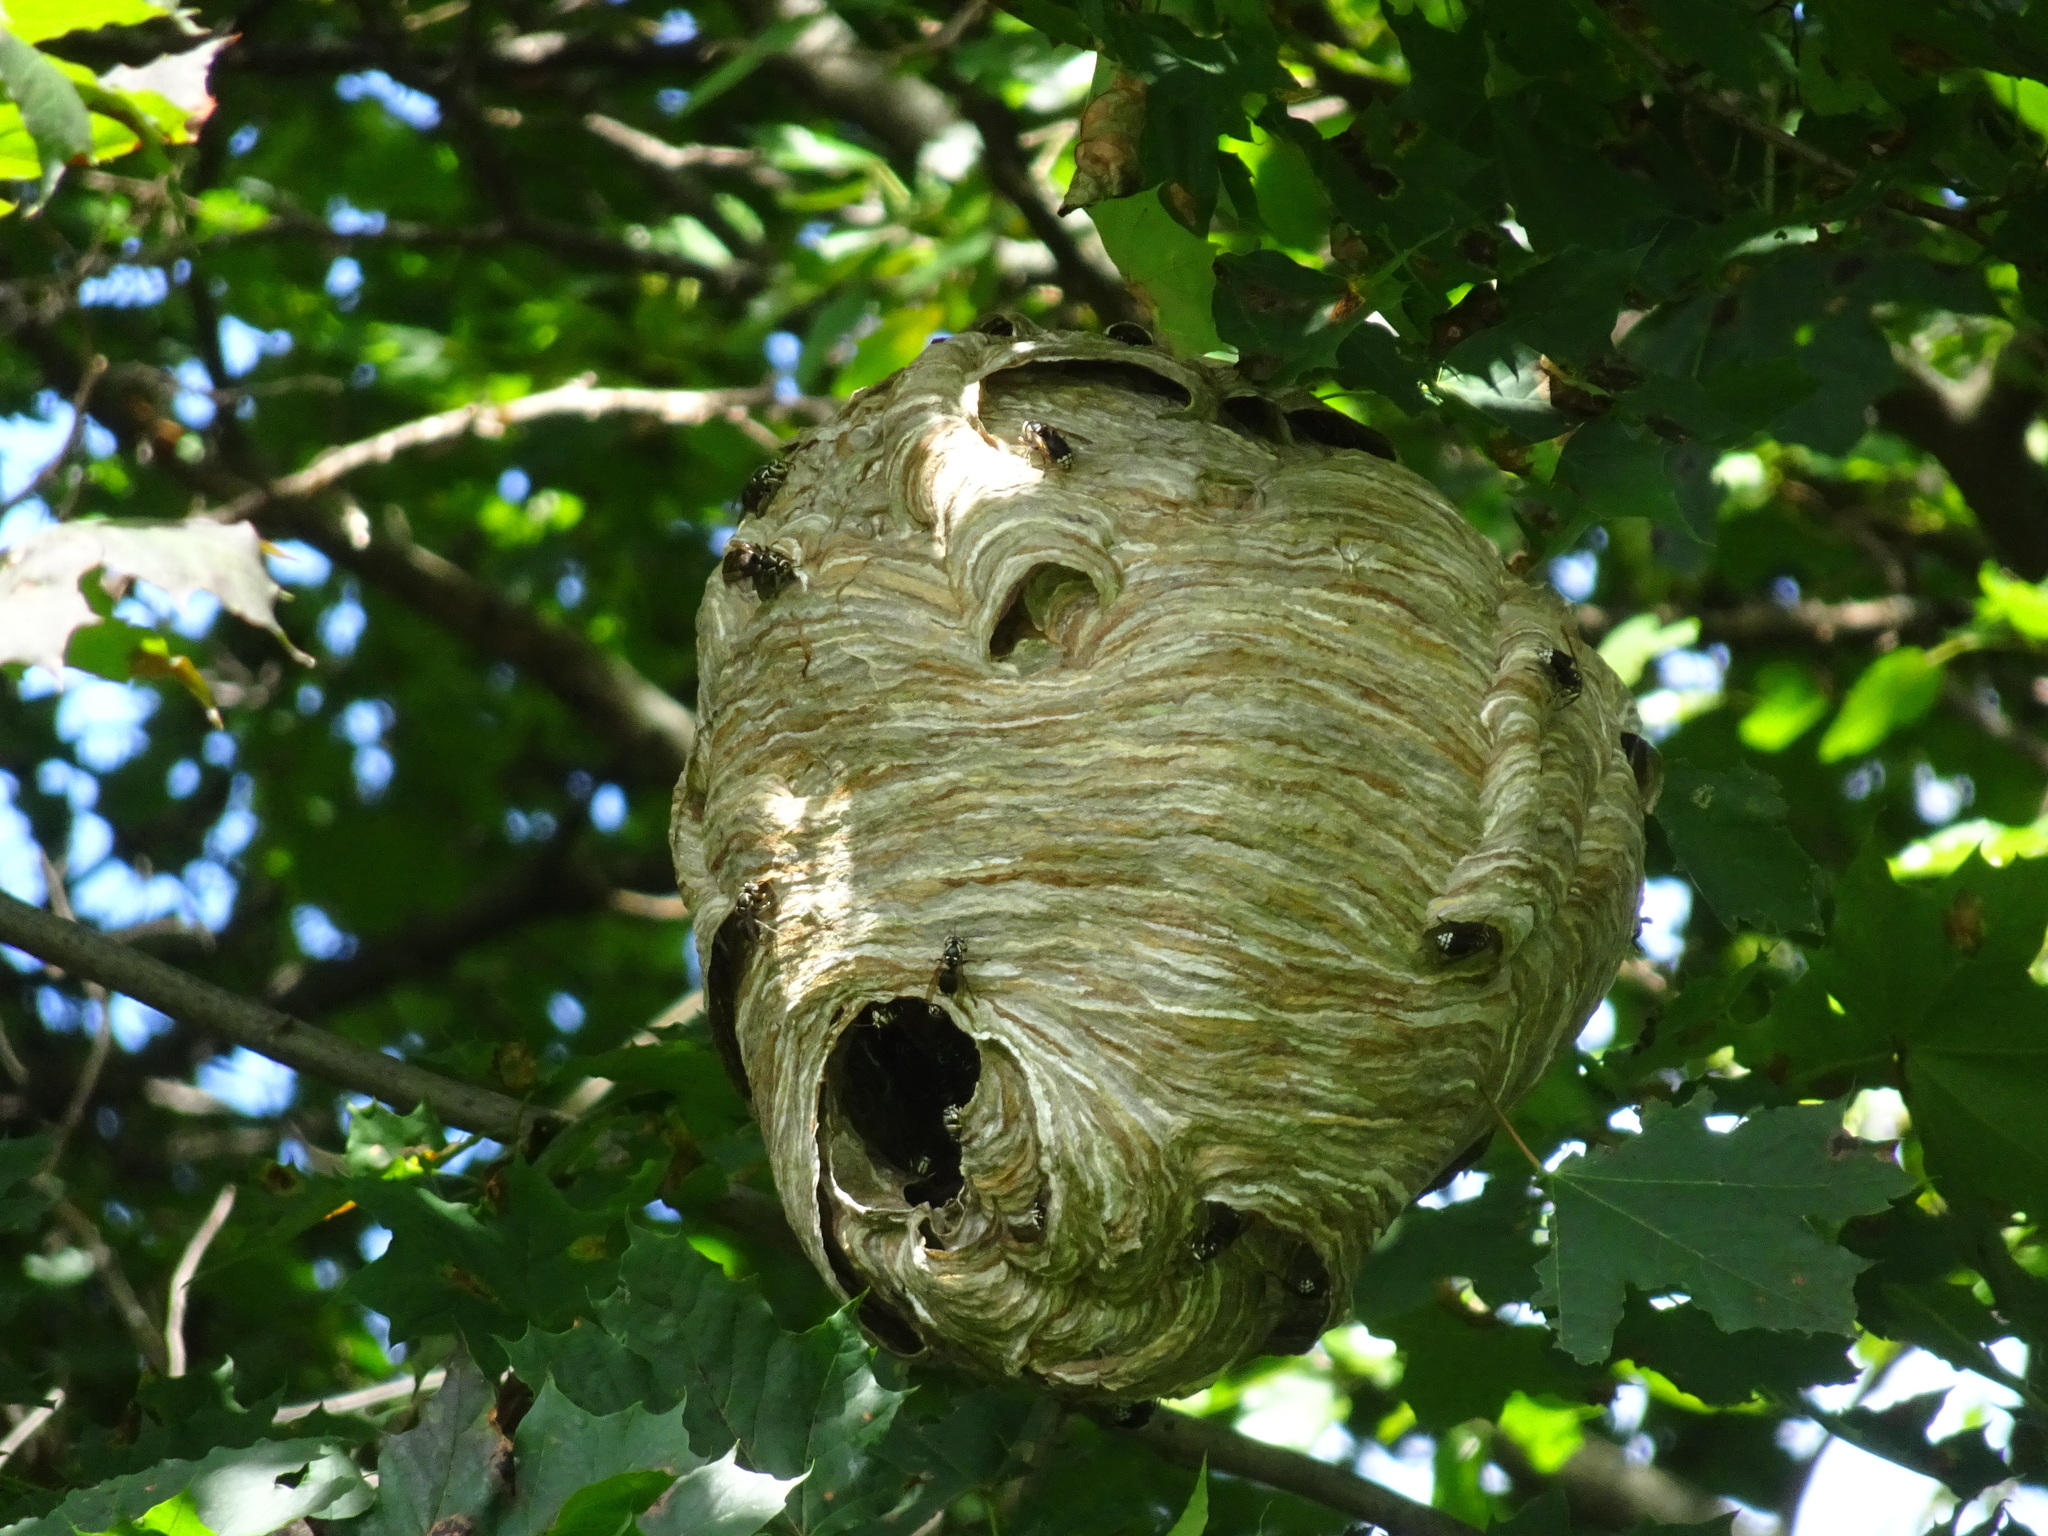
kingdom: Animalia
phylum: Arthropoda
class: Insecta
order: Hymenoptera
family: Vespidae
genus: Dolichovespula
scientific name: Dolichovespula maculata
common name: Bald-faced hornet
